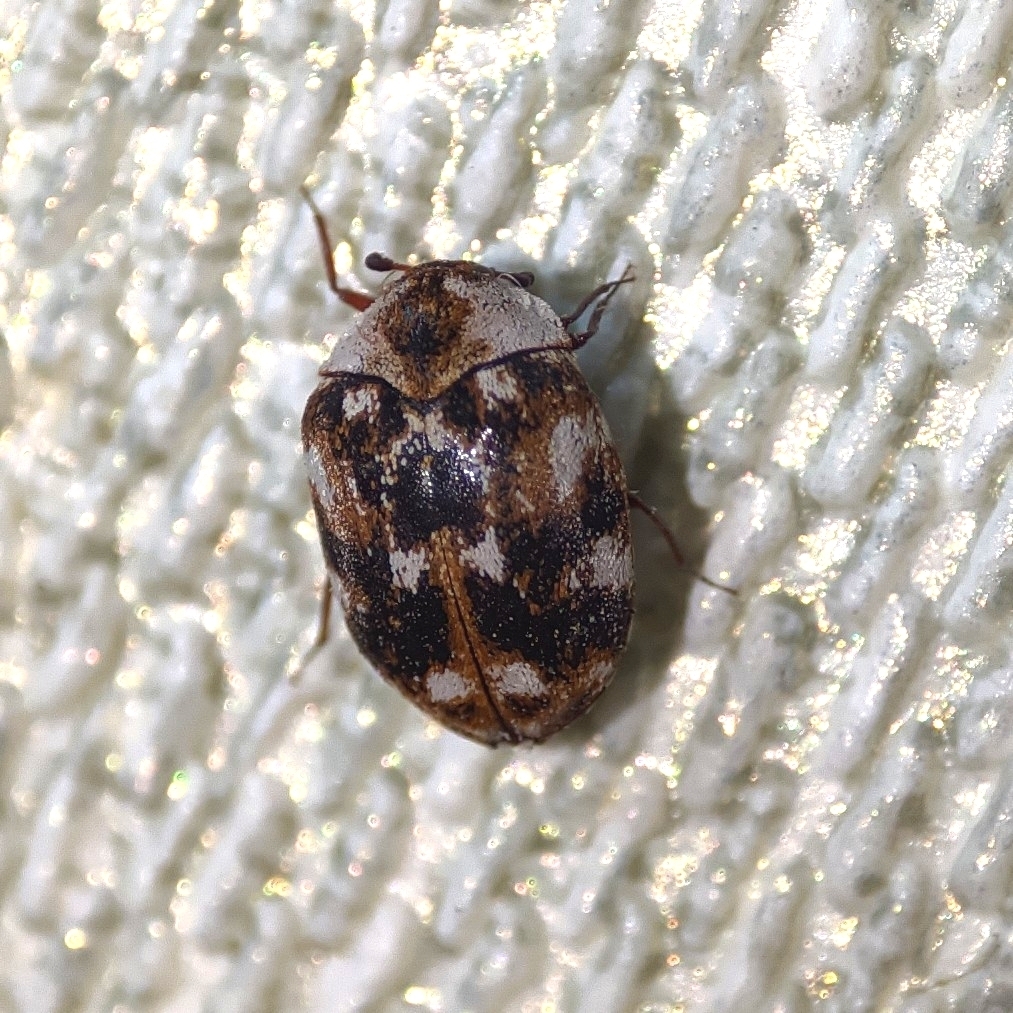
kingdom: Animalia
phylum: Arthropoda
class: Insecta
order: Coleoptera
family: Dermestidae
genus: Anthrenus
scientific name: Anthrenus picturatus
